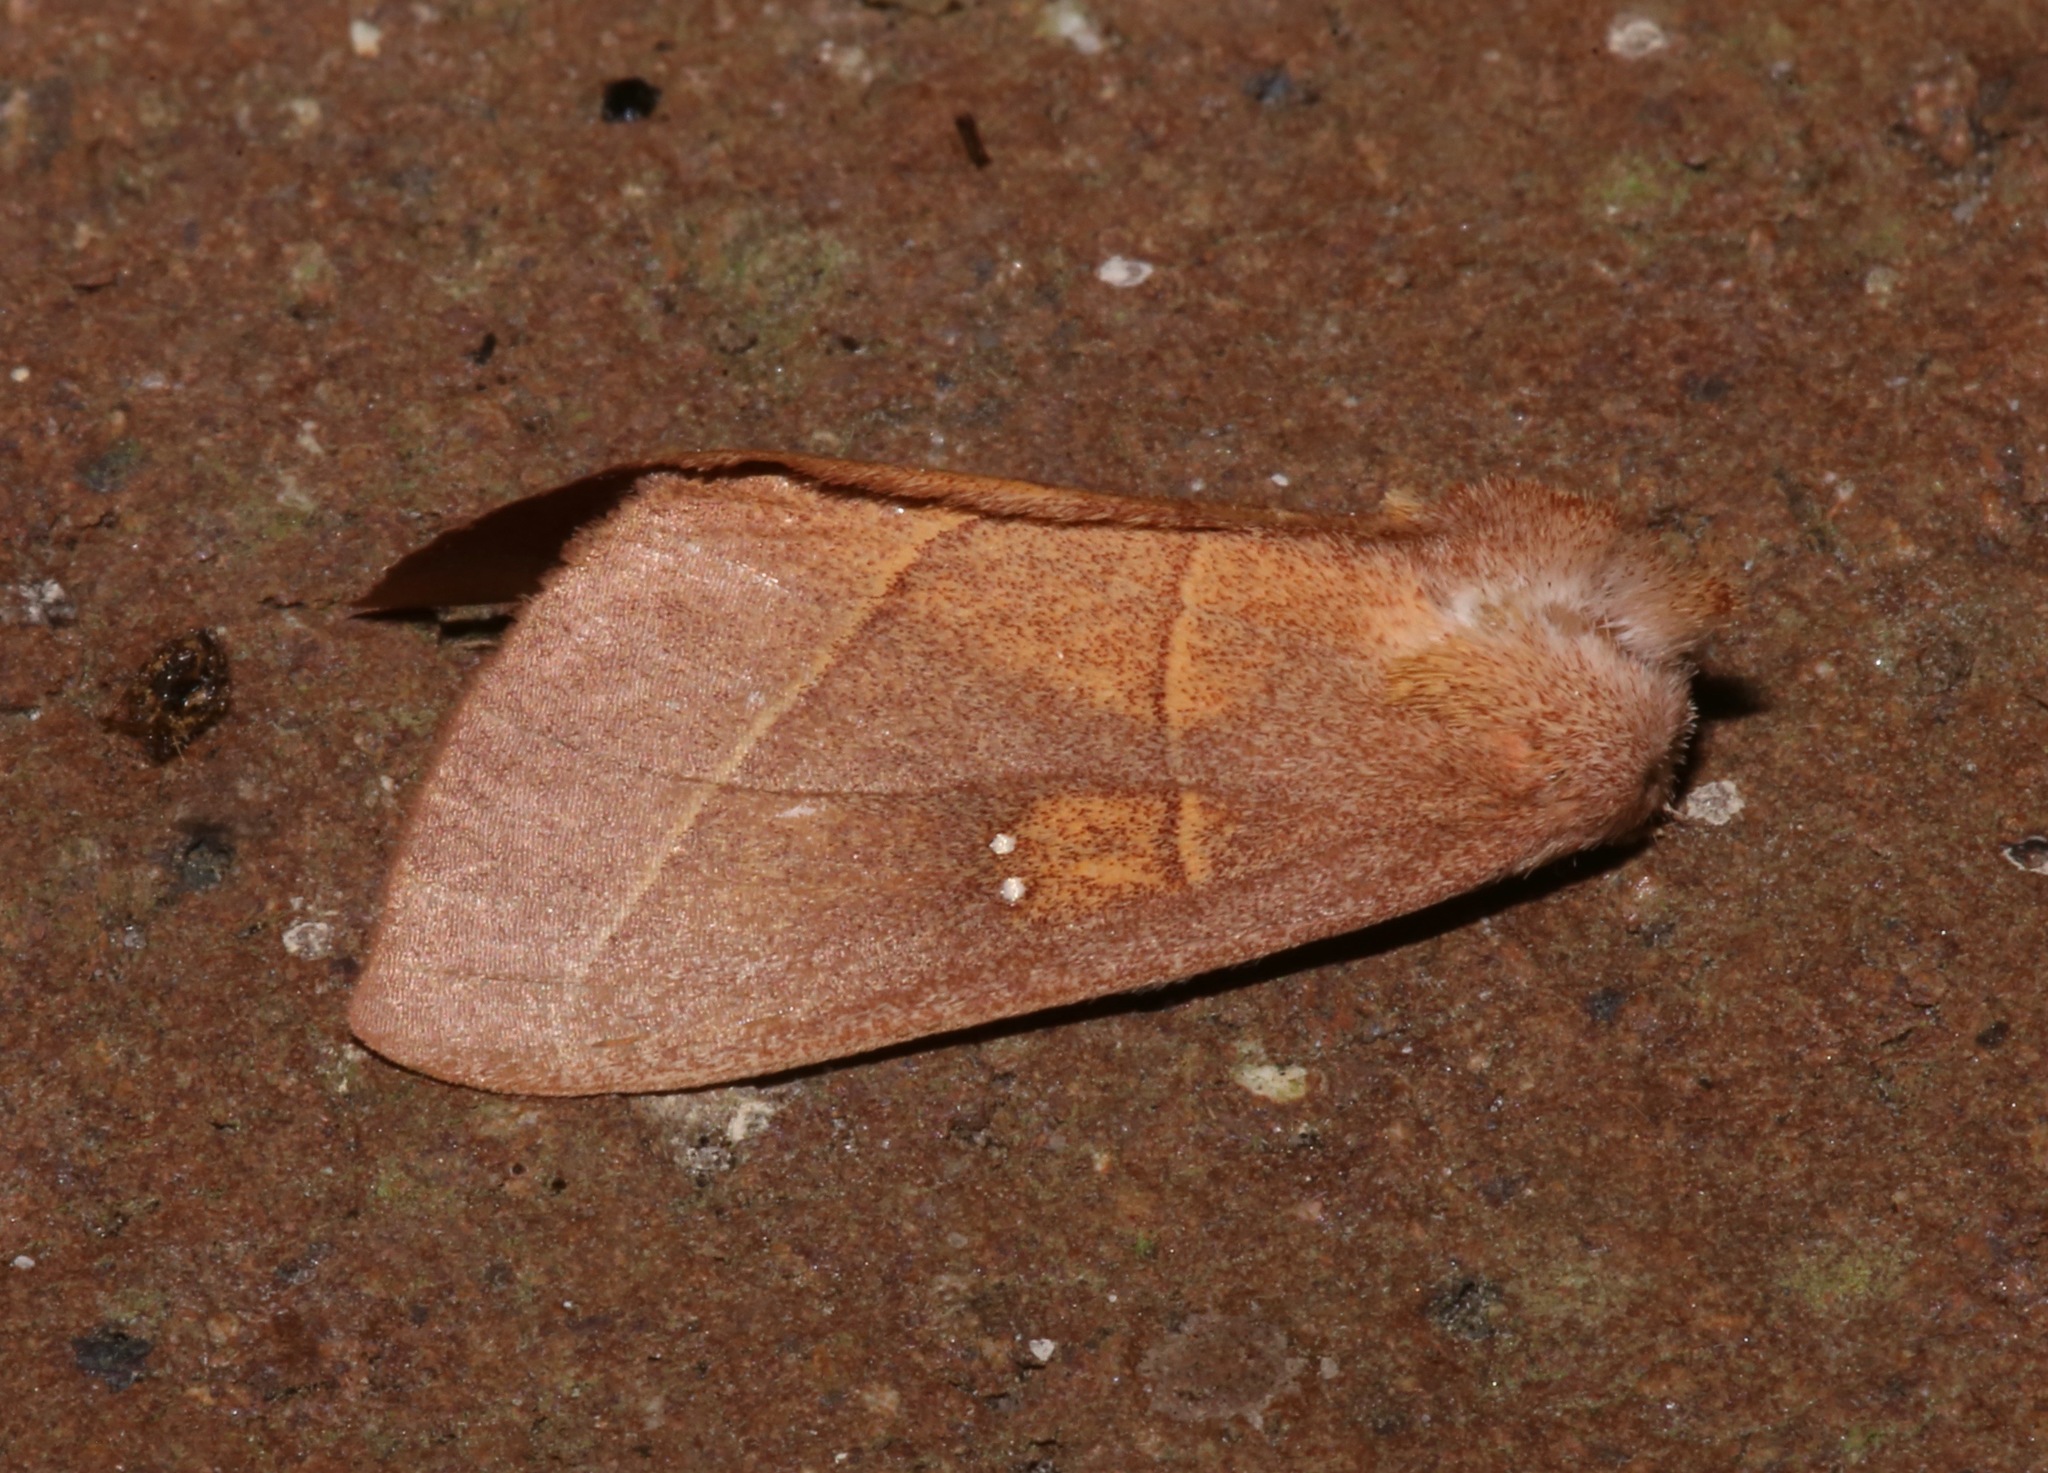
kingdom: Animalia
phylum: Arthropoda
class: Insecta
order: Lepidoptera
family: Notodontidae
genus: Nadata
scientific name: Nadata gibbosa
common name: White-dotted prominent
